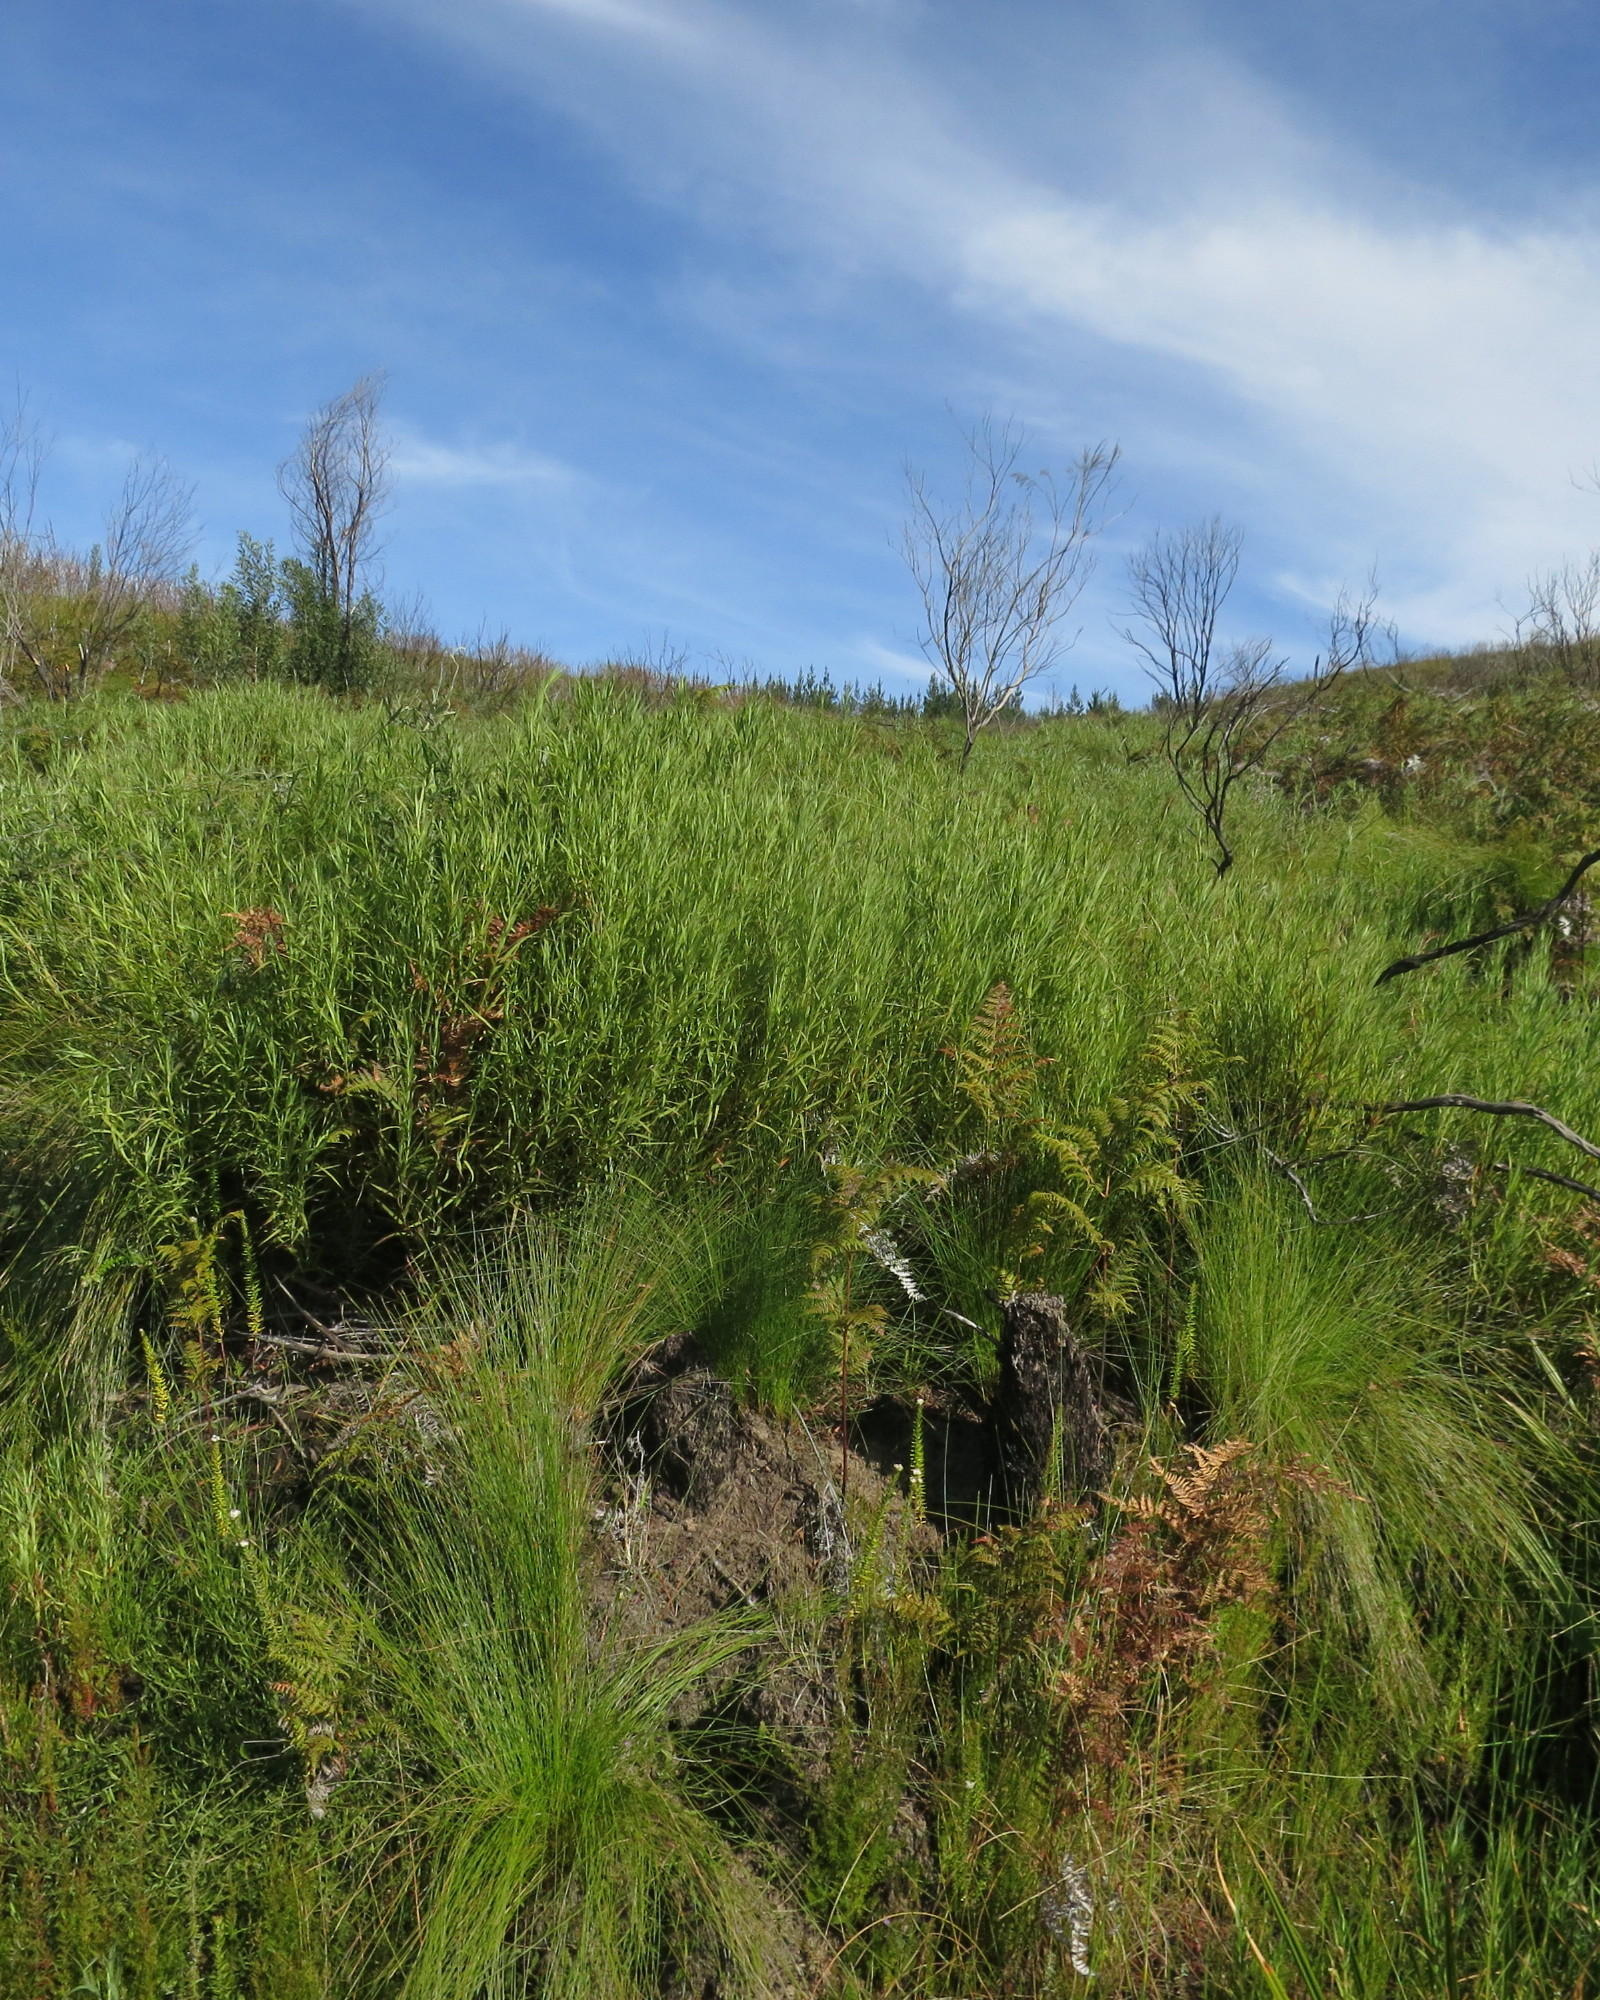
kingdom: Plantae
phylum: Tracheophyta
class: Magnoliopsida
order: Rosales
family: Rosaceae
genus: Cliffortia
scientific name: Cliffortia graminea
